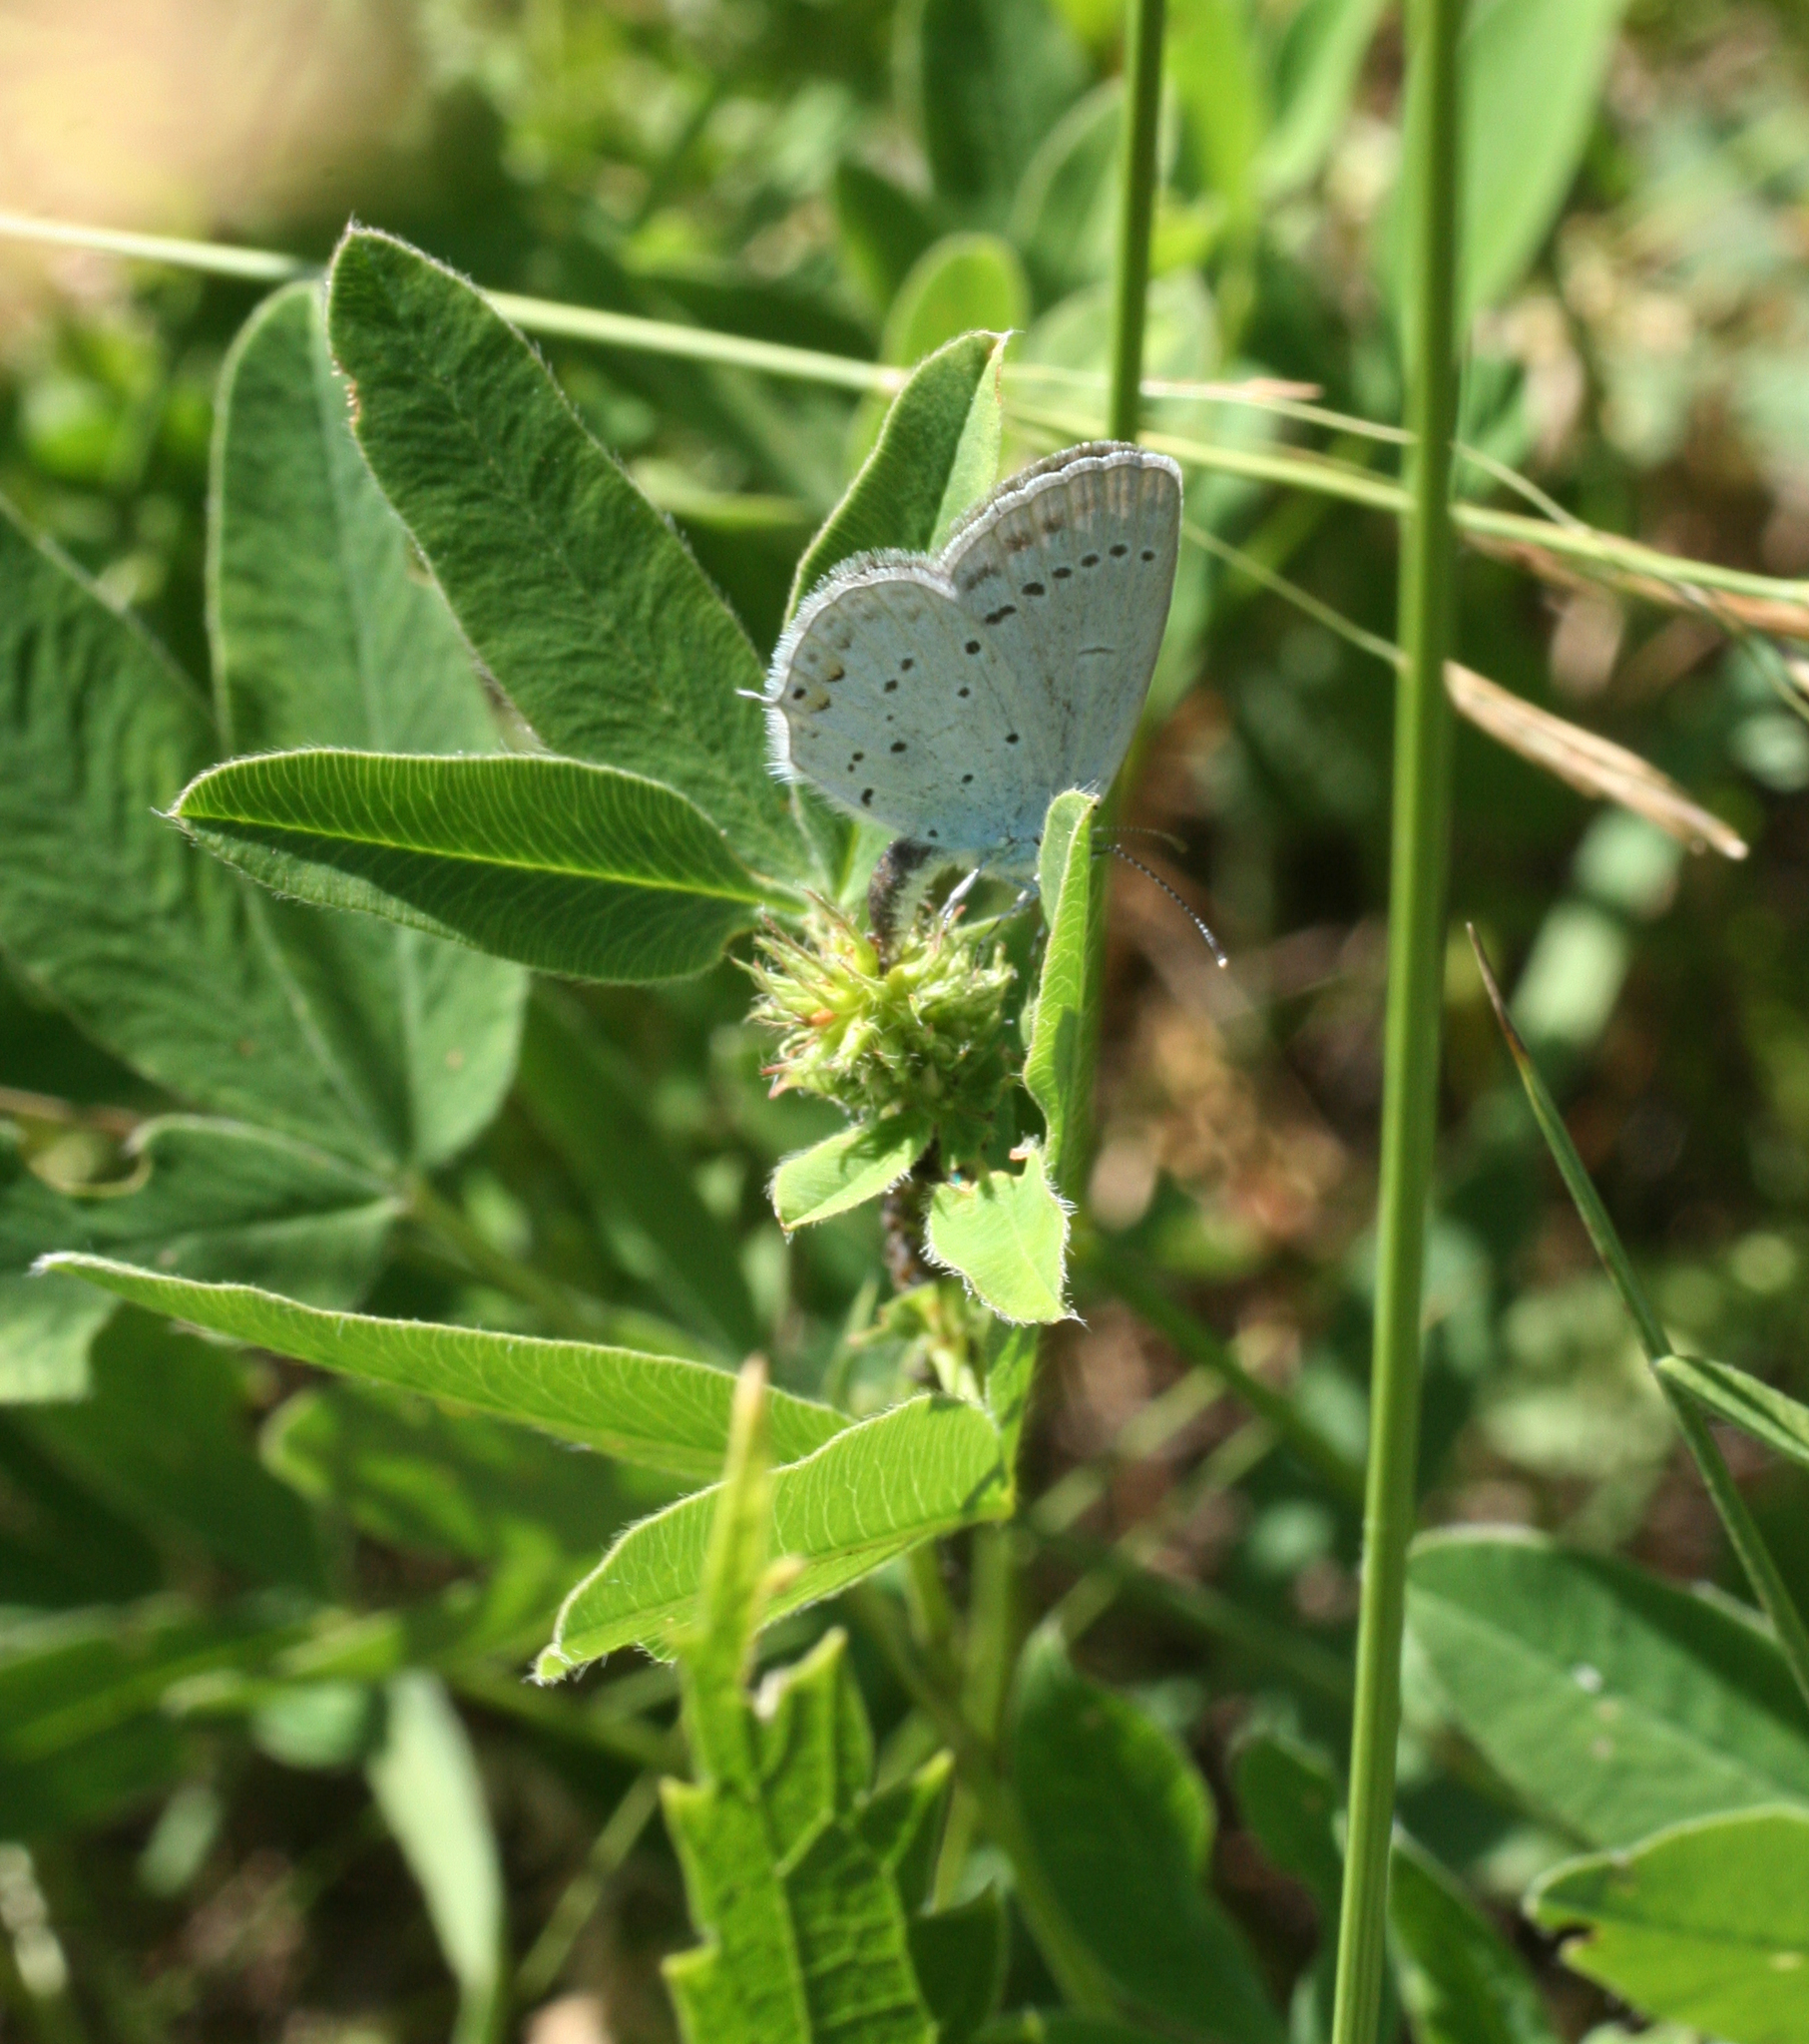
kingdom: Animalia
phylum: Arthropoda
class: Insecta
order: Lepidoptera
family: Lycaenidae
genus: Elkalyce
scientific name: Elkalyce argiades
